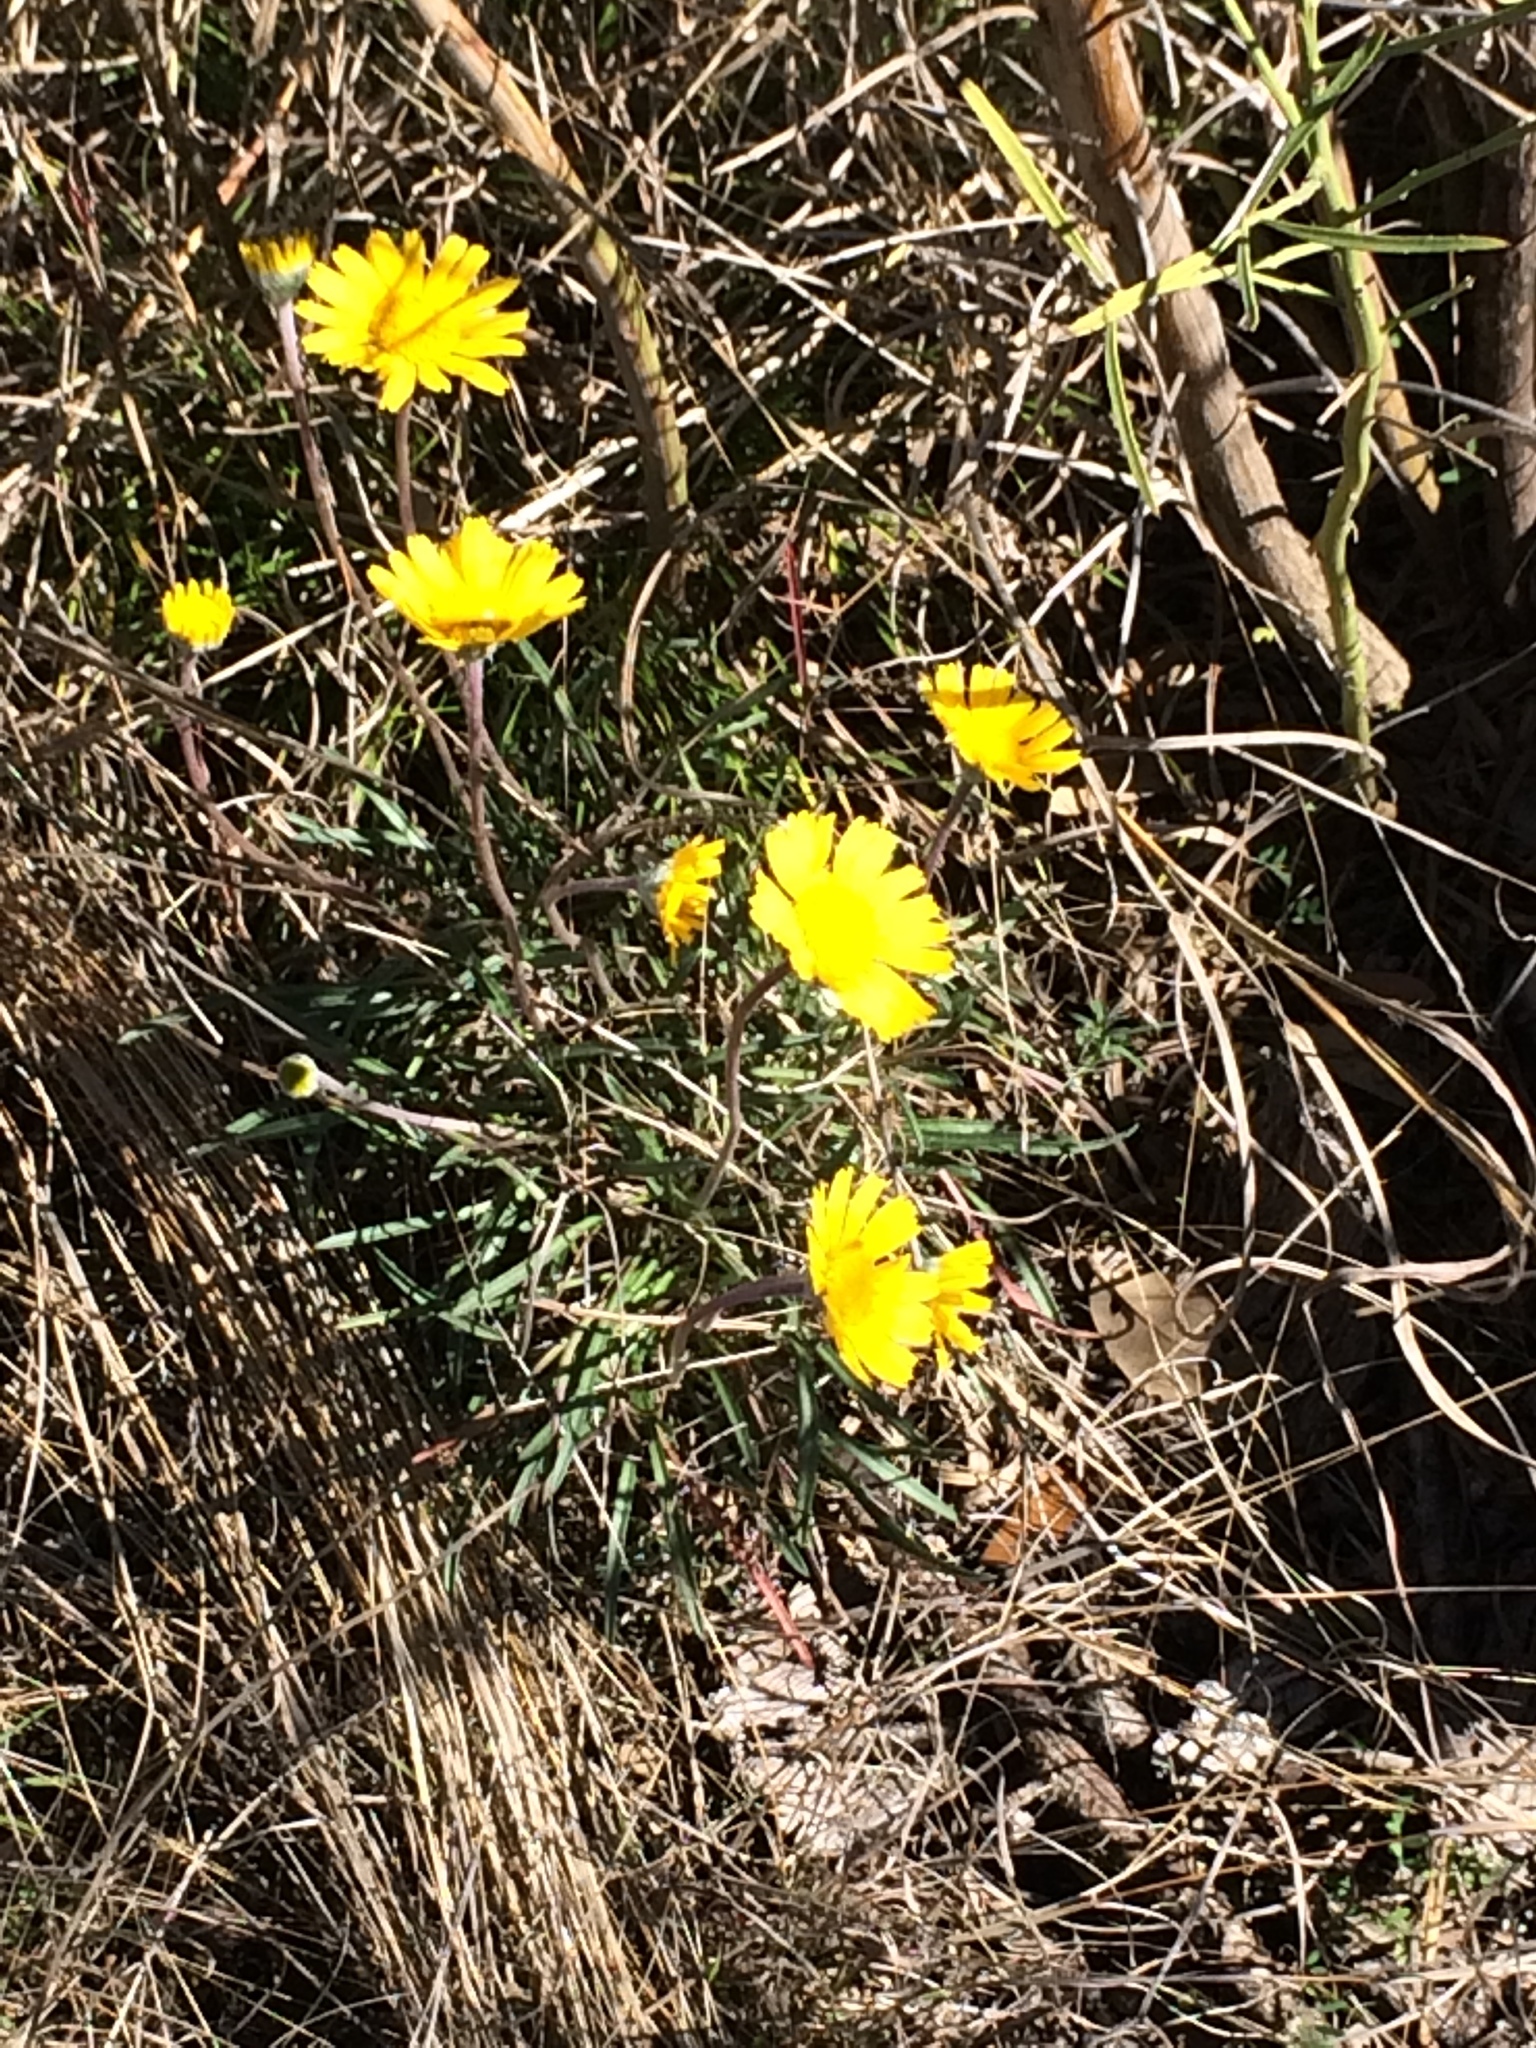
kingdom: Plantae
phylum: Tracheophyta
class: Magnoliopsida
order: Asterales
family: Asteraceae
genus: Tetraneuris
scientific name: Tetraneuris scaposa
